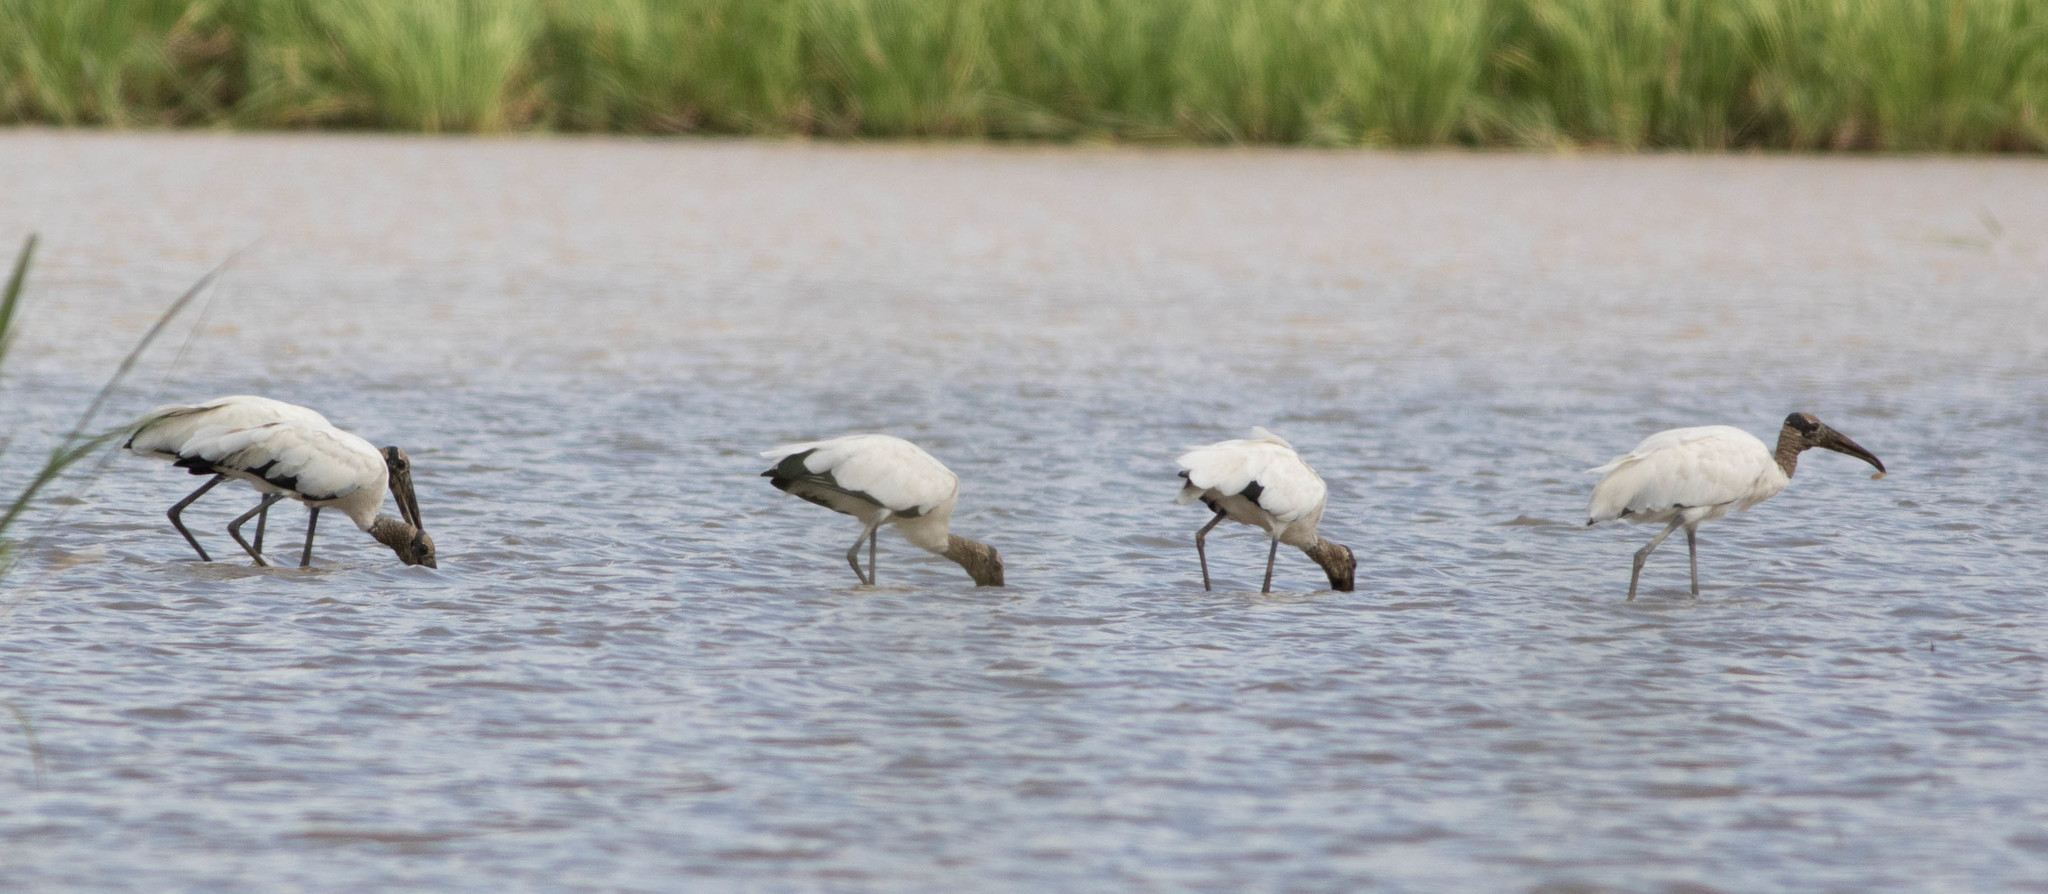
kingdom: Animalia
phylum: Chordata
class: Aves
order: Ciconiiformes
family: Ciconiidae
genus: Mycteria
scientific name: Mycteria americana
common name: Wood stork
